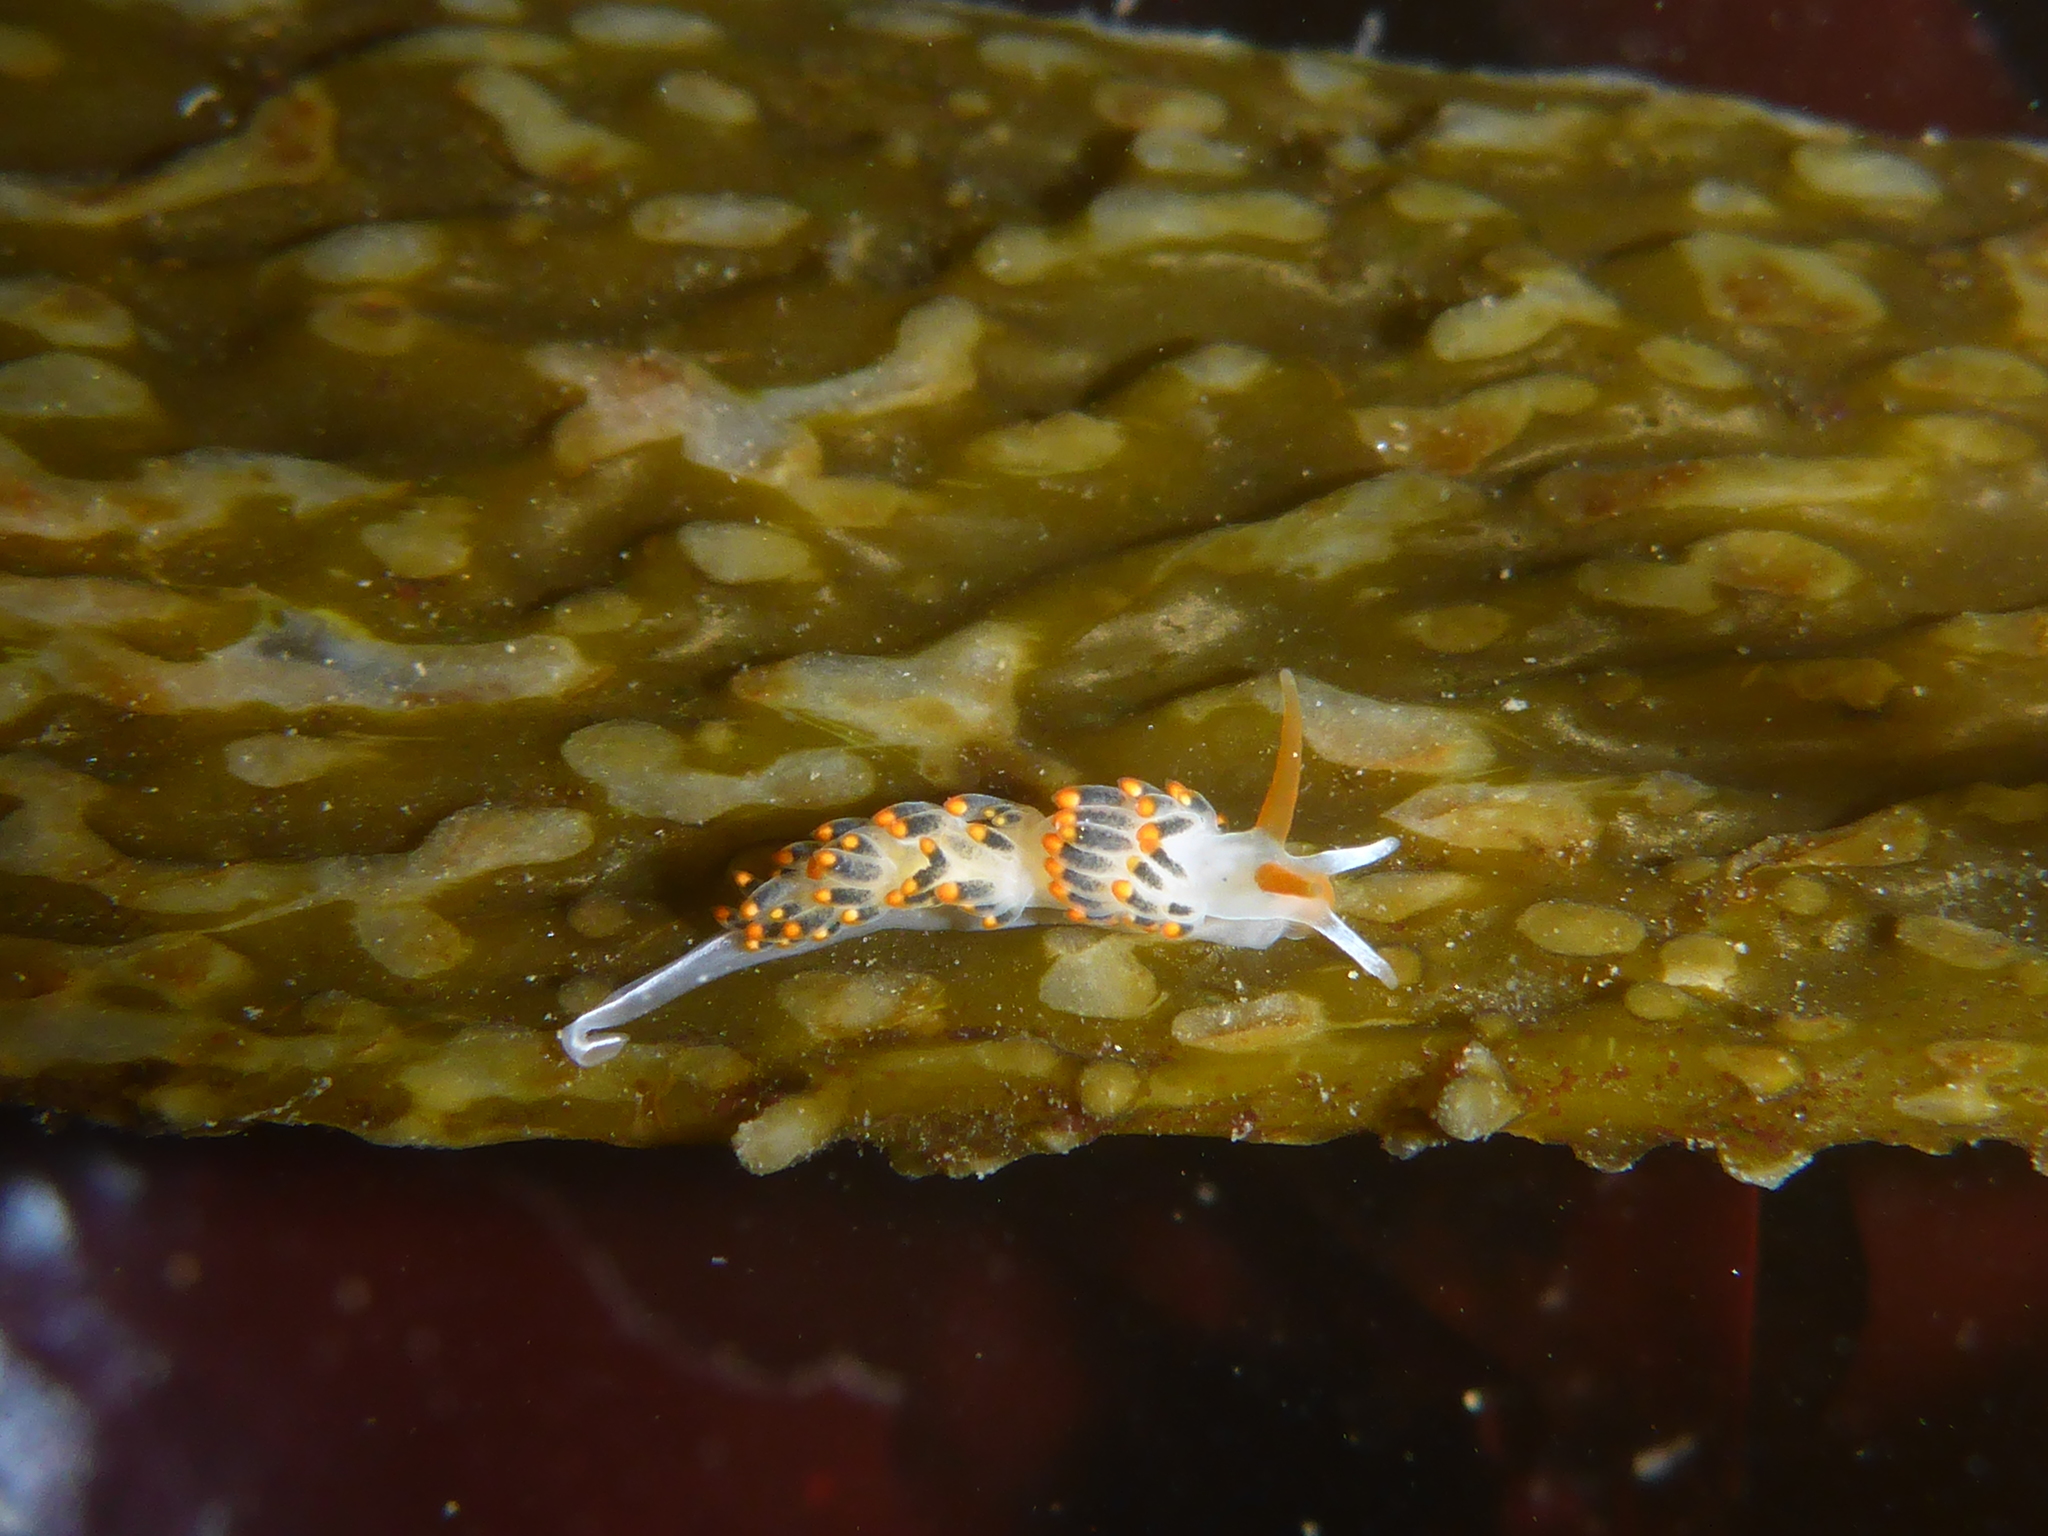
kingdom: Animalia
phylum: Mollusca
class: Gastropoda
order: Nudibranchia
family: Trinchesiidae
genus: Diaphoreolis
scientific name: Diaphoreolis lagunae
